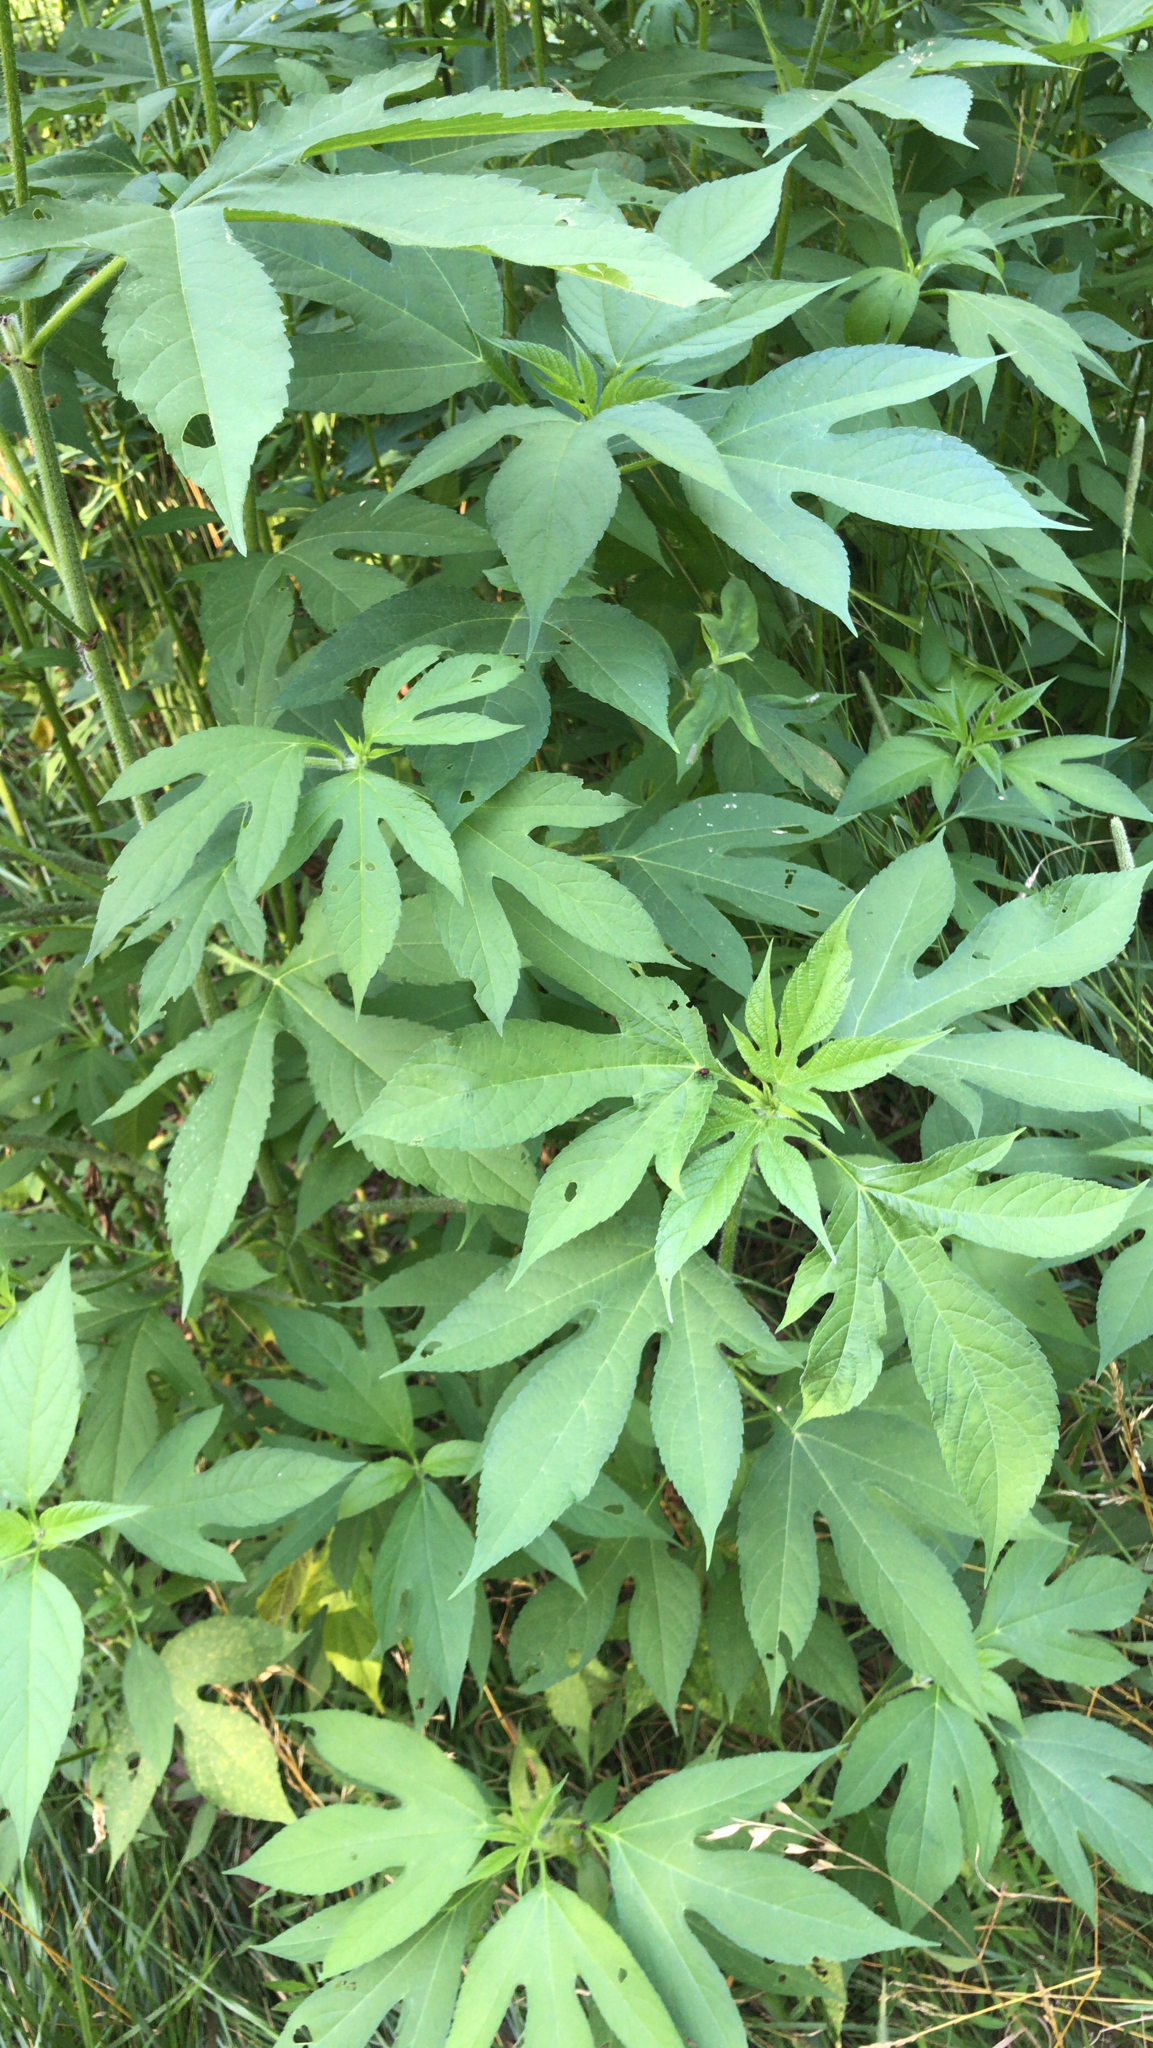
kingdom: Plantae
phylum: Tracheophyta
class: Magnoliopsida
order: Asterales
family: Asteraceae
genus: Ambrosia
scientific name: Ambrosia trifida
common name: Giant ragweed
